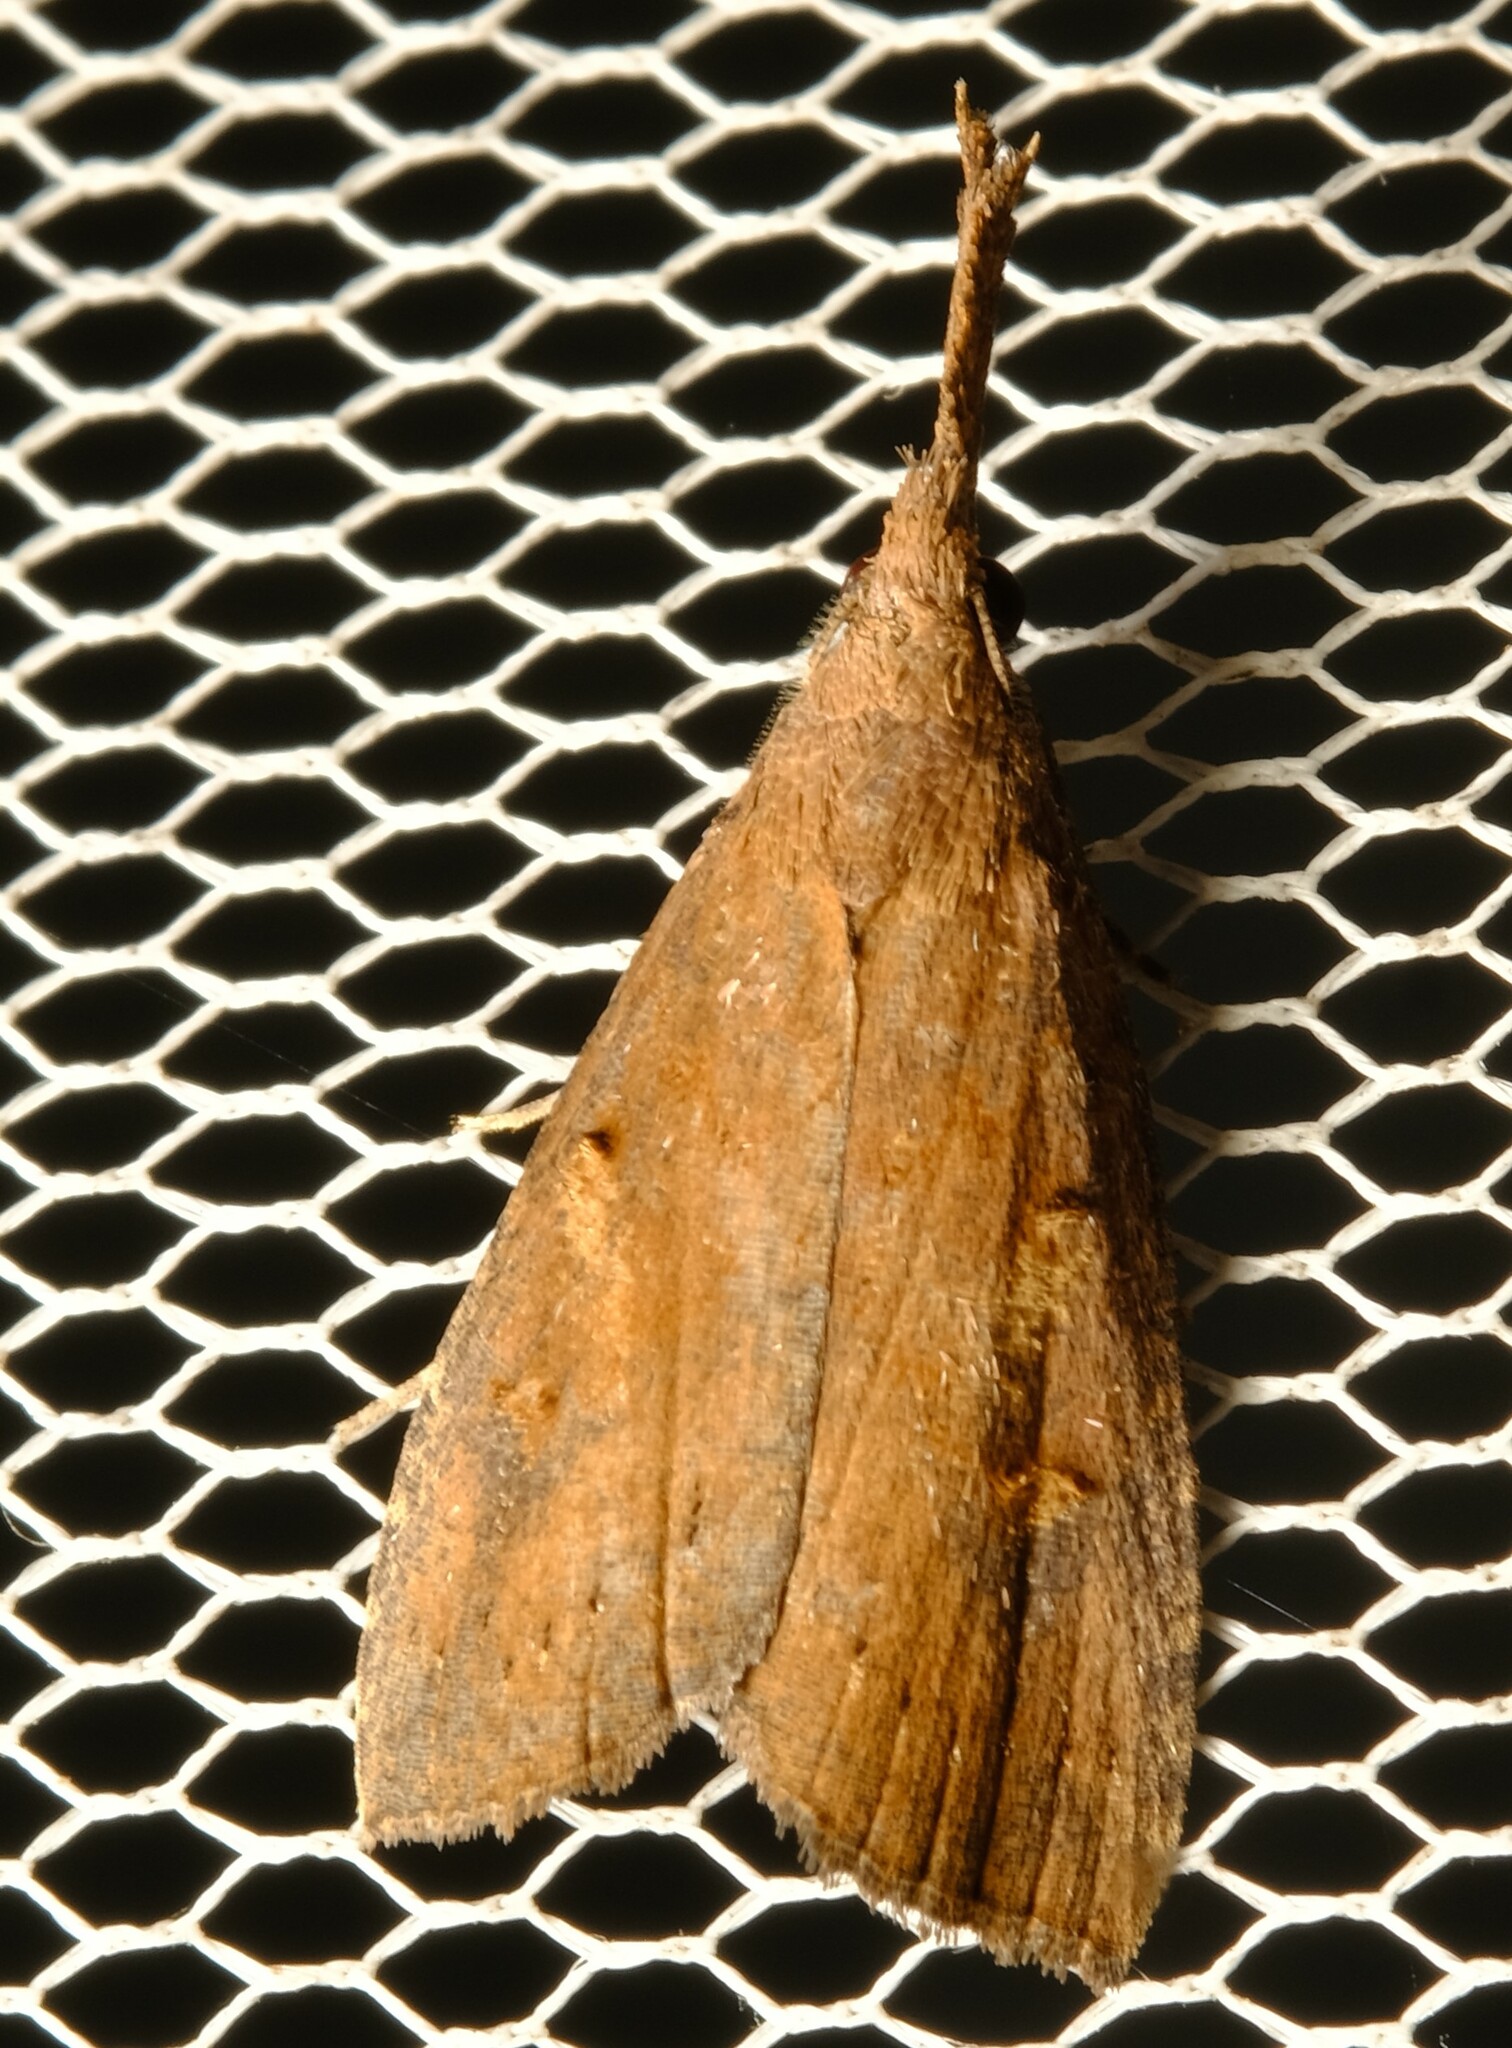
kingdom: Animalia
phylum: Arthropoda
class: Insecta
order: Lepidoptera
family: Erebidae
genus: Hypena
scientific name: Hypena subvittalis
